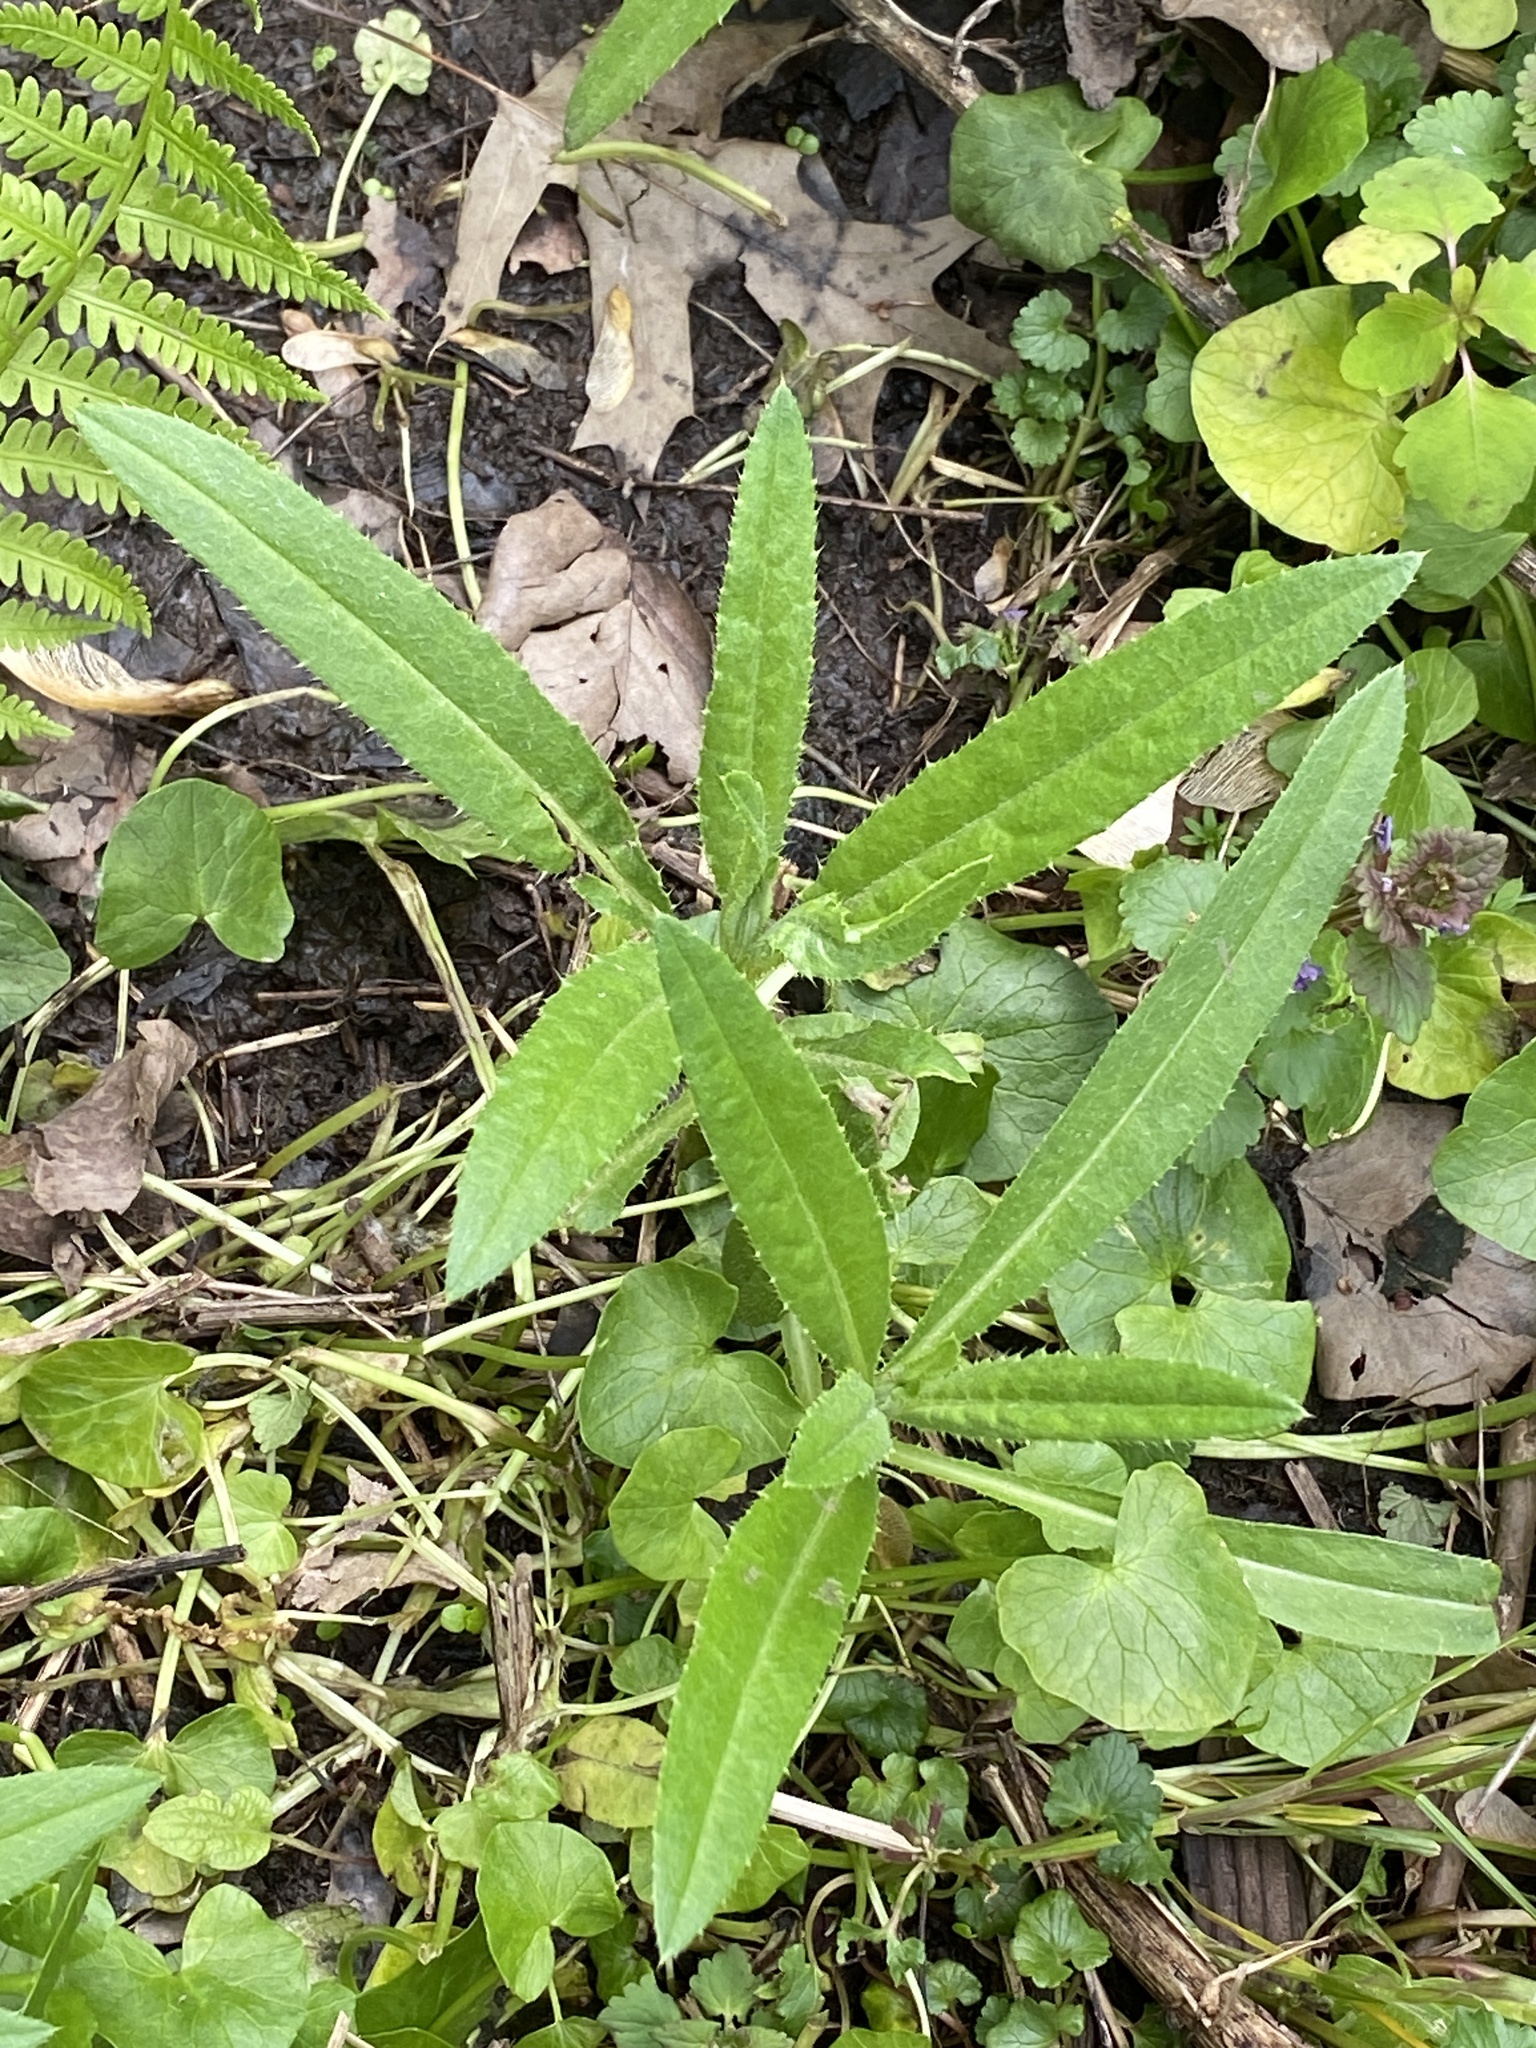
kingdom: Plantae
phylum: Tracheophyta
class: Magnoliopsida
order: Asterales
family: Asteraceae
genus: Cirsium
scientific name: Cirsium arvense
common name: Creeping thistle
